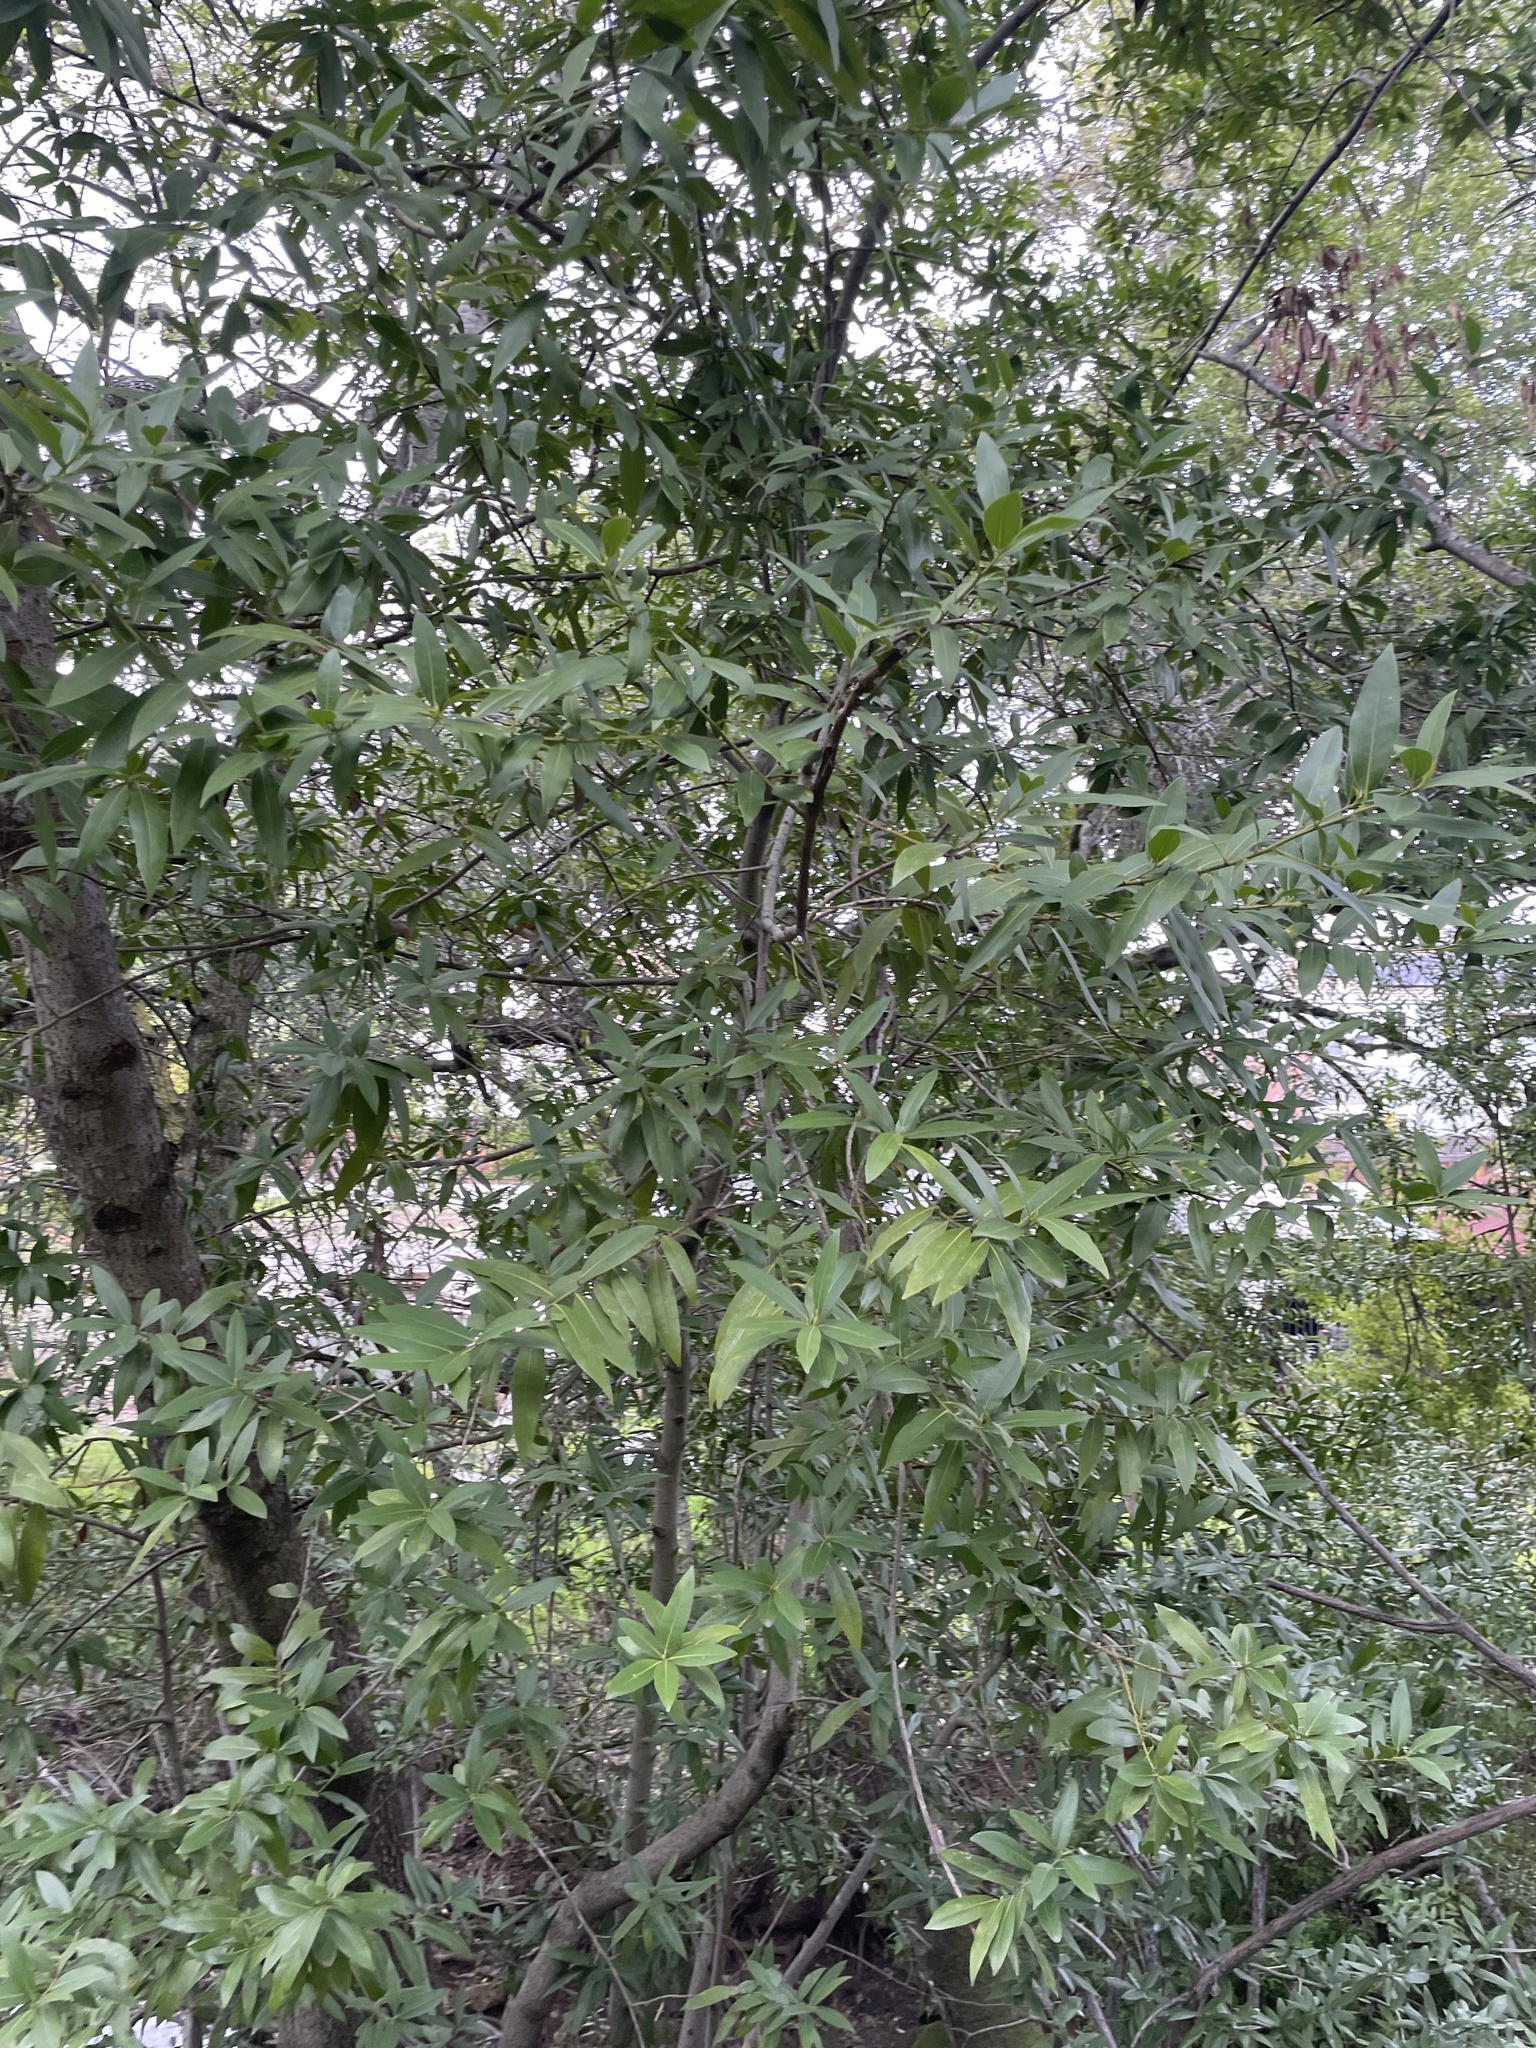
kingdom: Plantae
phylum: Tracheophyta
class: Magnoliopsida
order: Laurales
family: Lauraceae
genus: Umbellularia
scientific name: Umbellularia californica
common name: California bay
